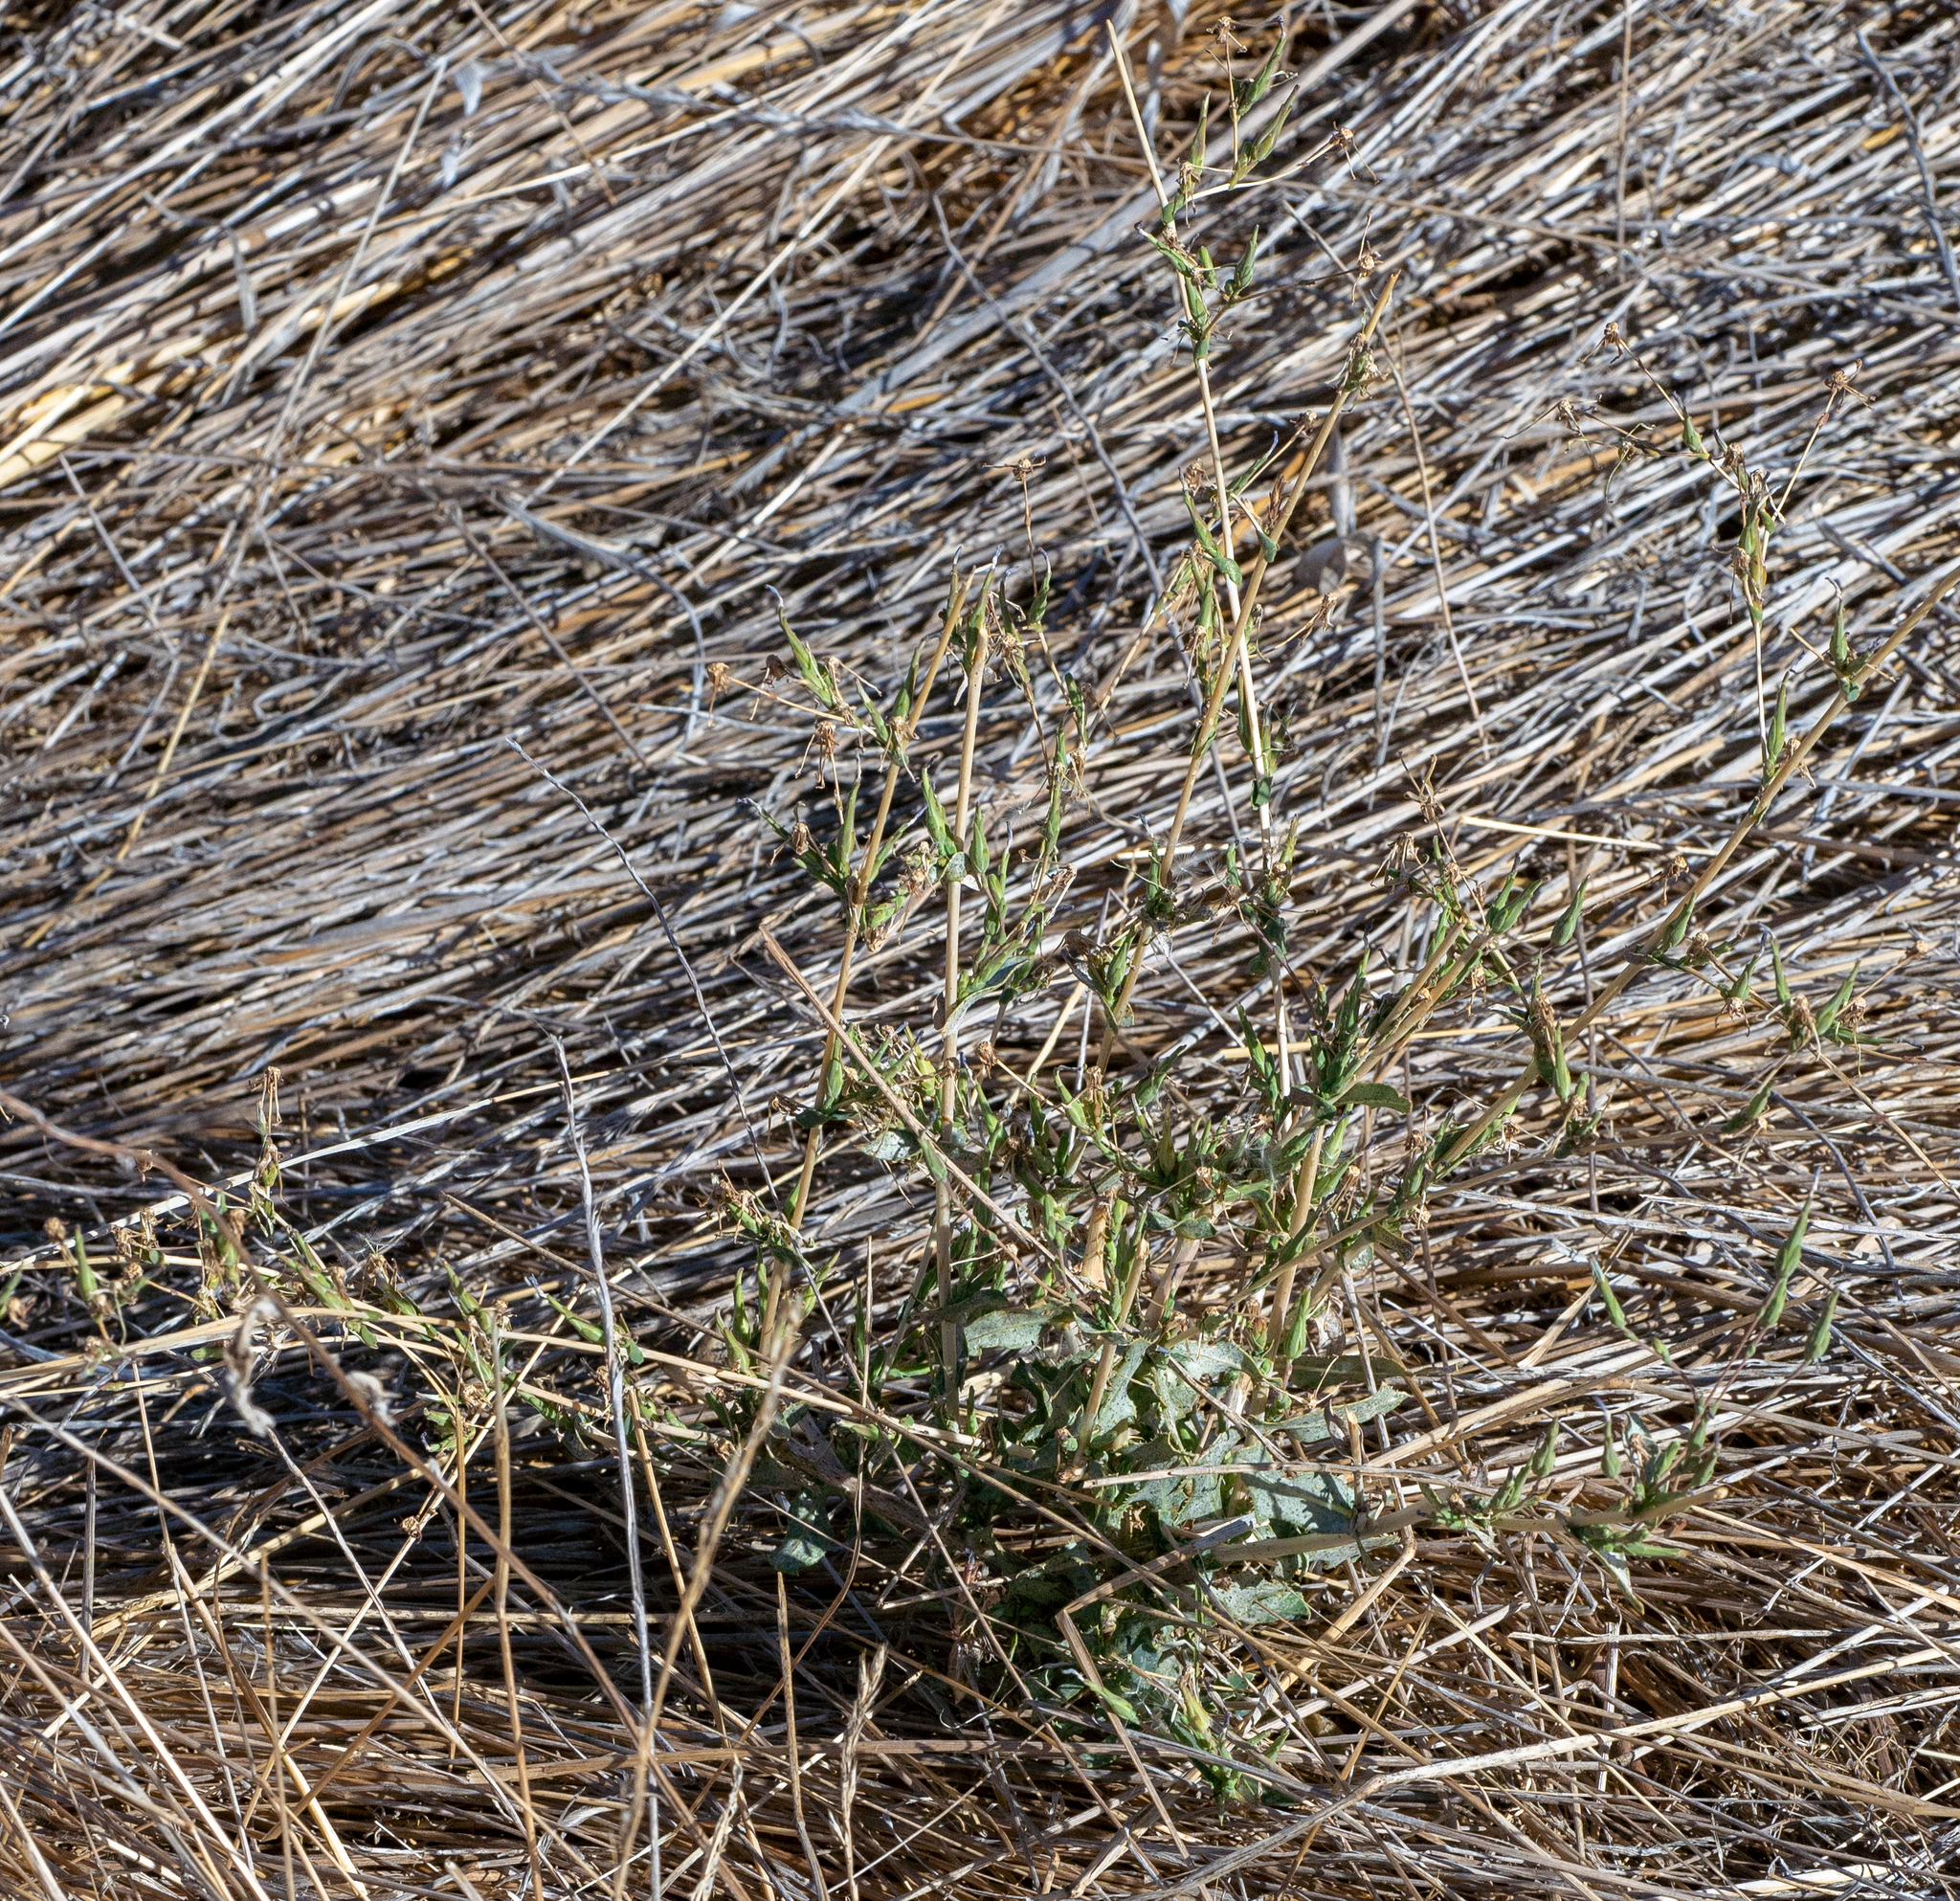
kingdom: Plantae
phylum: Tracheophyta
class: Magnoliopsida
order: Asterales
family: Asteraceae
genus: Lactuca
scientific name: Lactuca serriola
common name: Prickly lettuce
